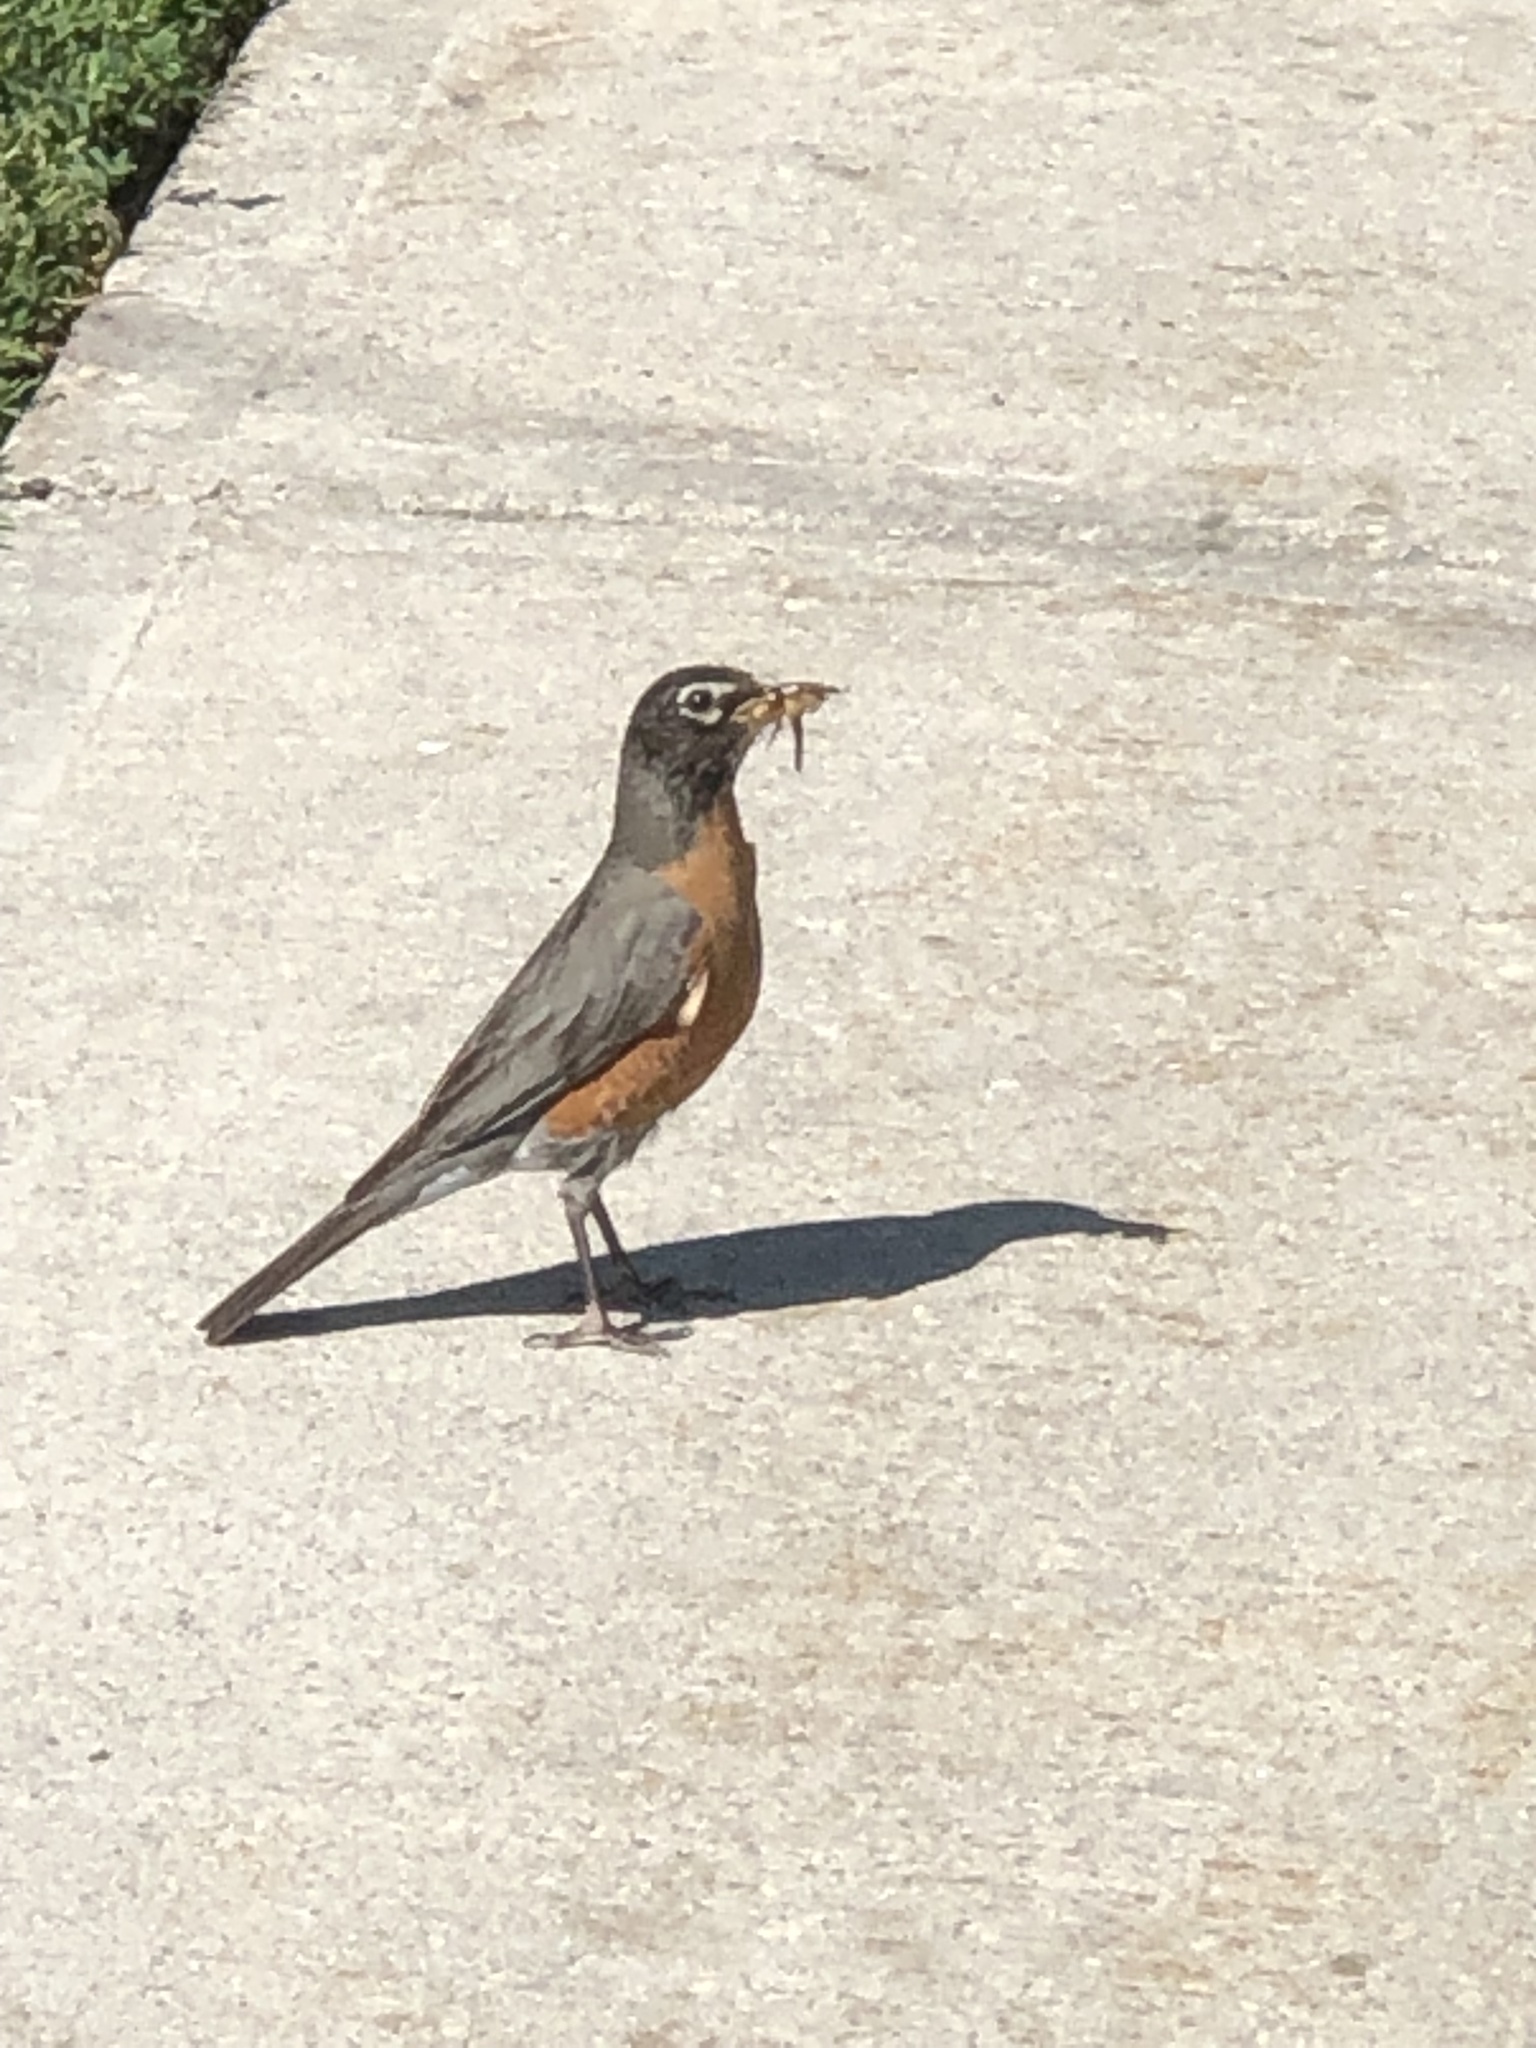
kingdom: Animalia
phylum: Chordata
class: Aves
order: Passeriformes
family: Turdidae
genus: Turdus
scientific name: Turdus migratorius
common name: American robin
